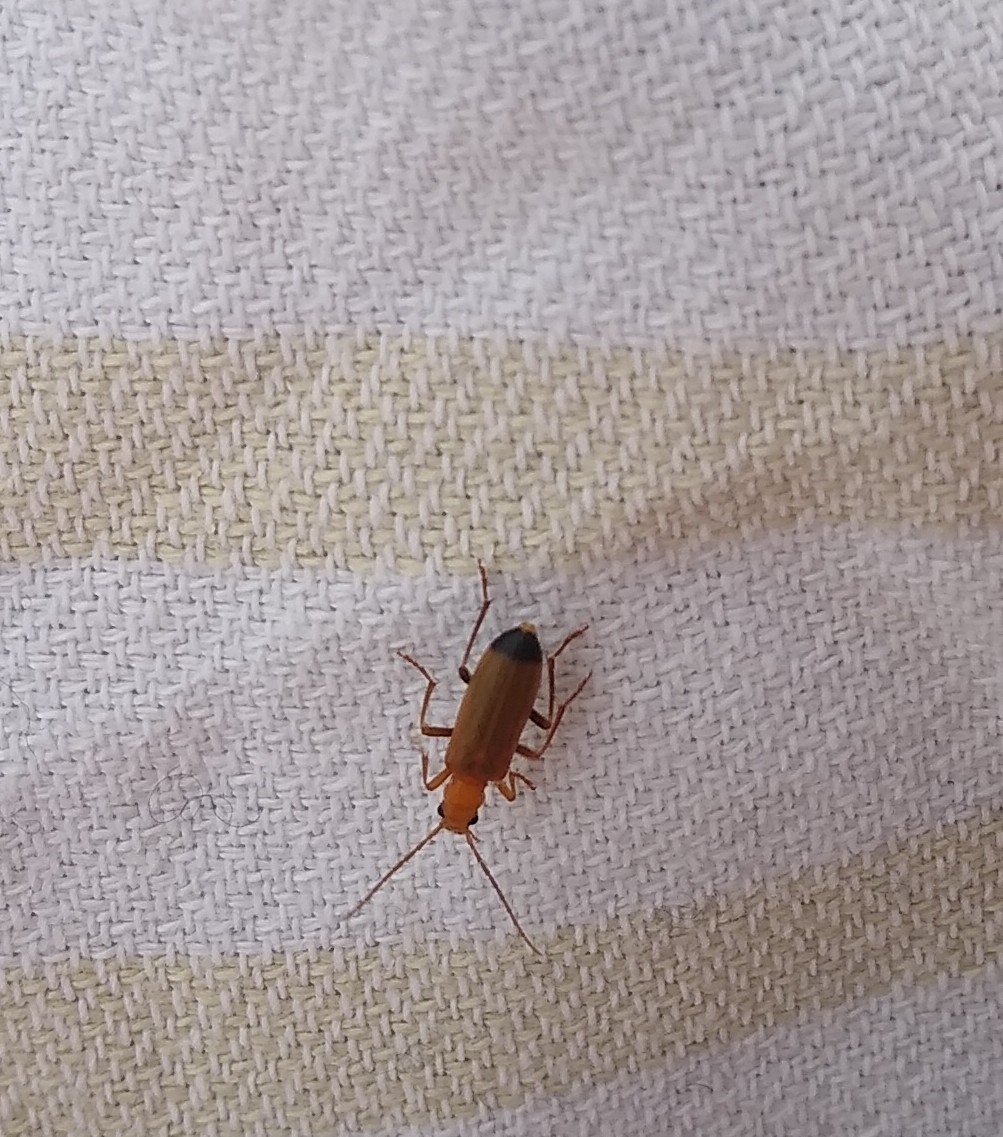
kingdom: Animalia
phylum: Arthropoda
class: Insecta
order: Coleoptera
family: Oedemeridae
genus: Nacerdes
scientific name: Nacerdes melanura
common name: Wharf borer
